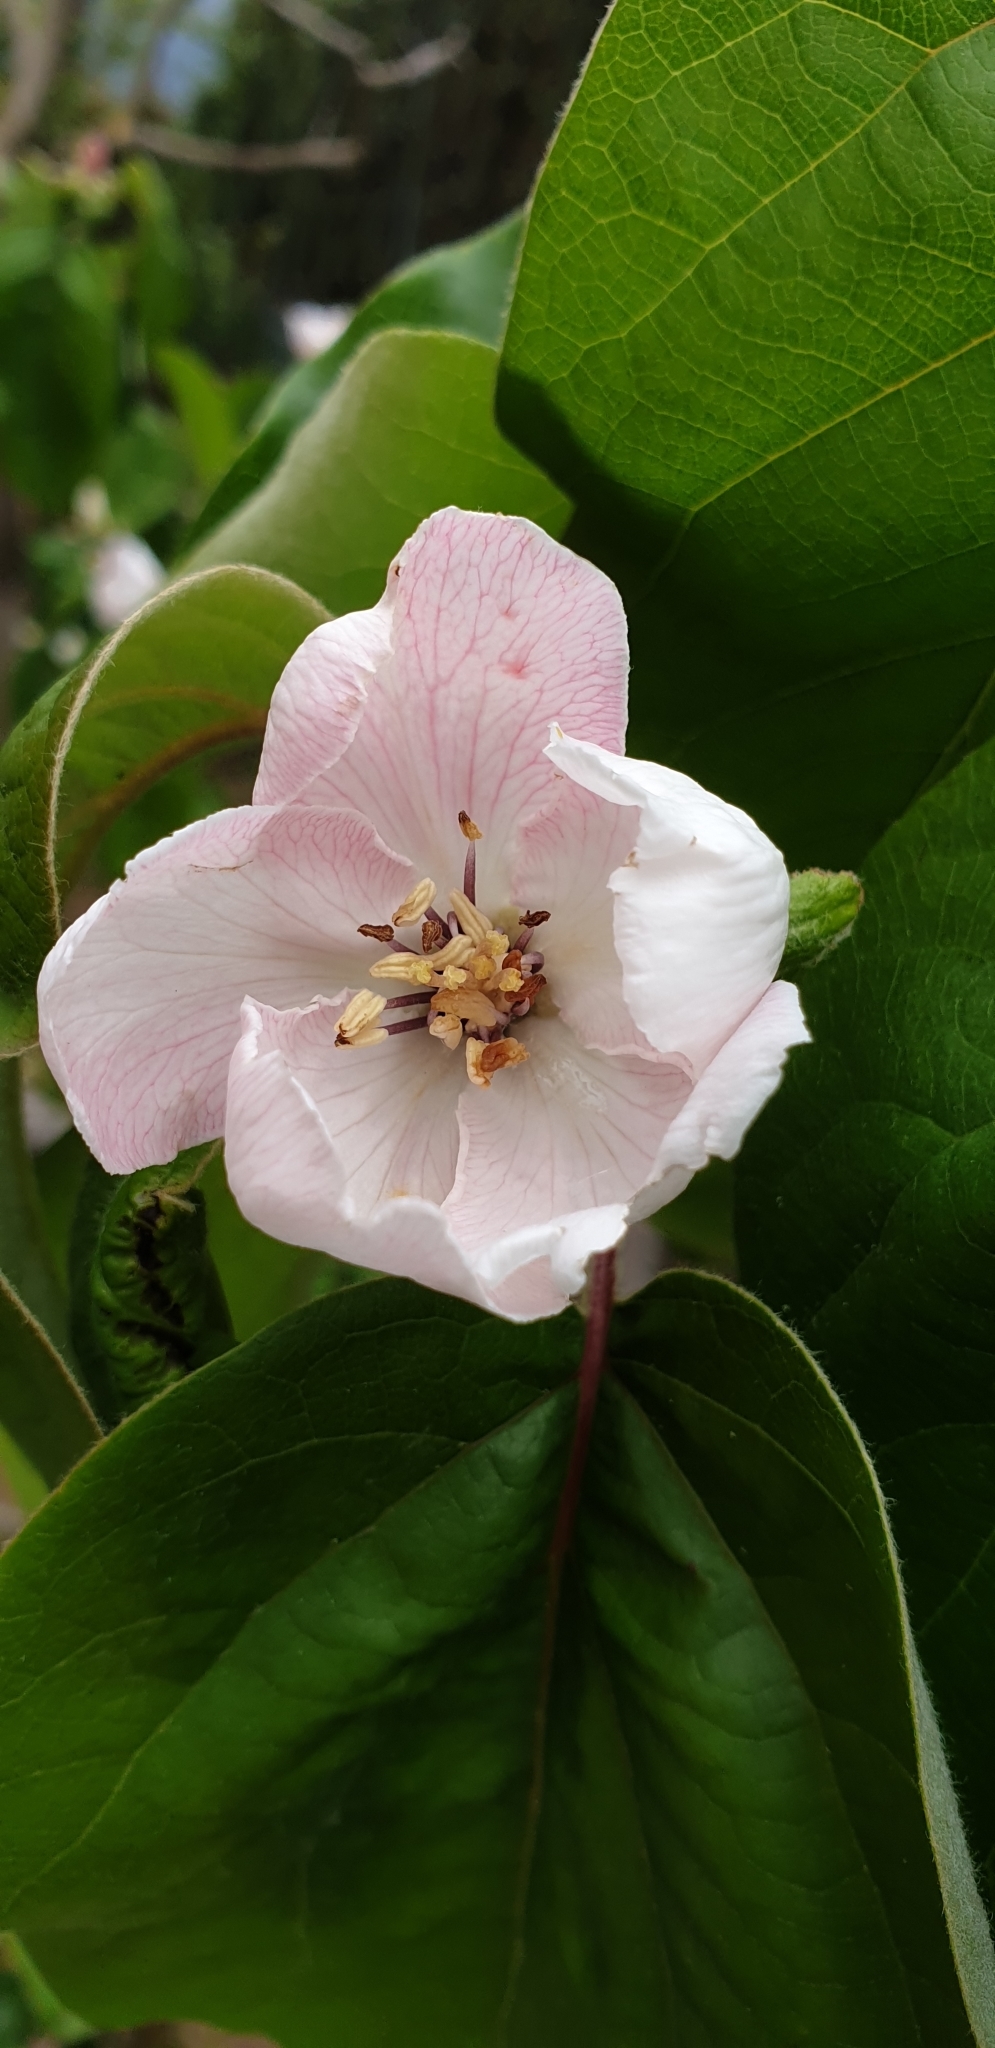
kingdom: Plantae
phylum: Tracheophyta
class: Magnoliopsida
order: Rosales
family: Rosaceae
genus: Cydonia
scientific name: Cydonia oblonga
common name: Quince
